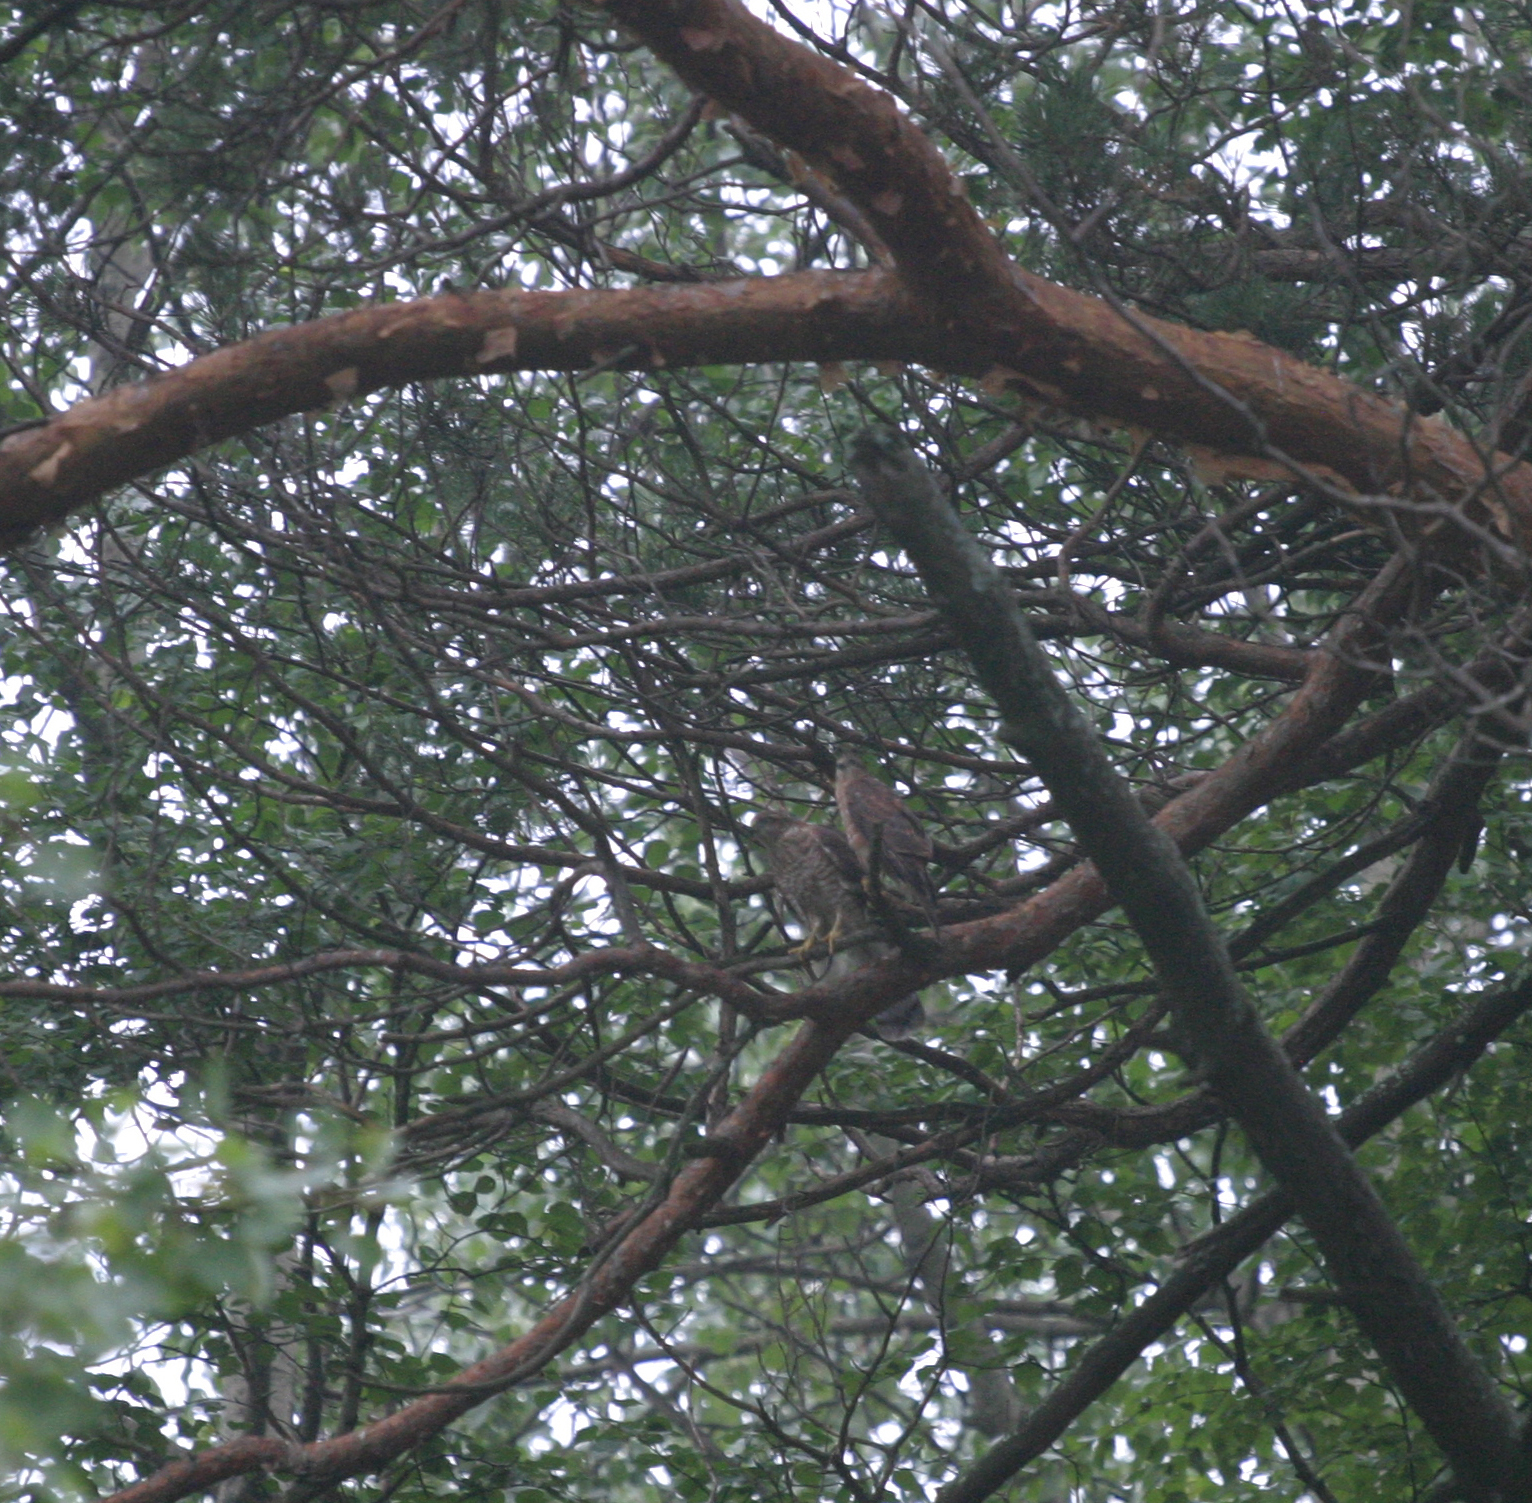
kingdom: Animalia
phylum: Chordata
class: Aves
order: Accipitriformes
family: Accipitridae
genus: Accipiter
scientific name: Accipiter nisus
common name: Eurasian sparrowhawk
